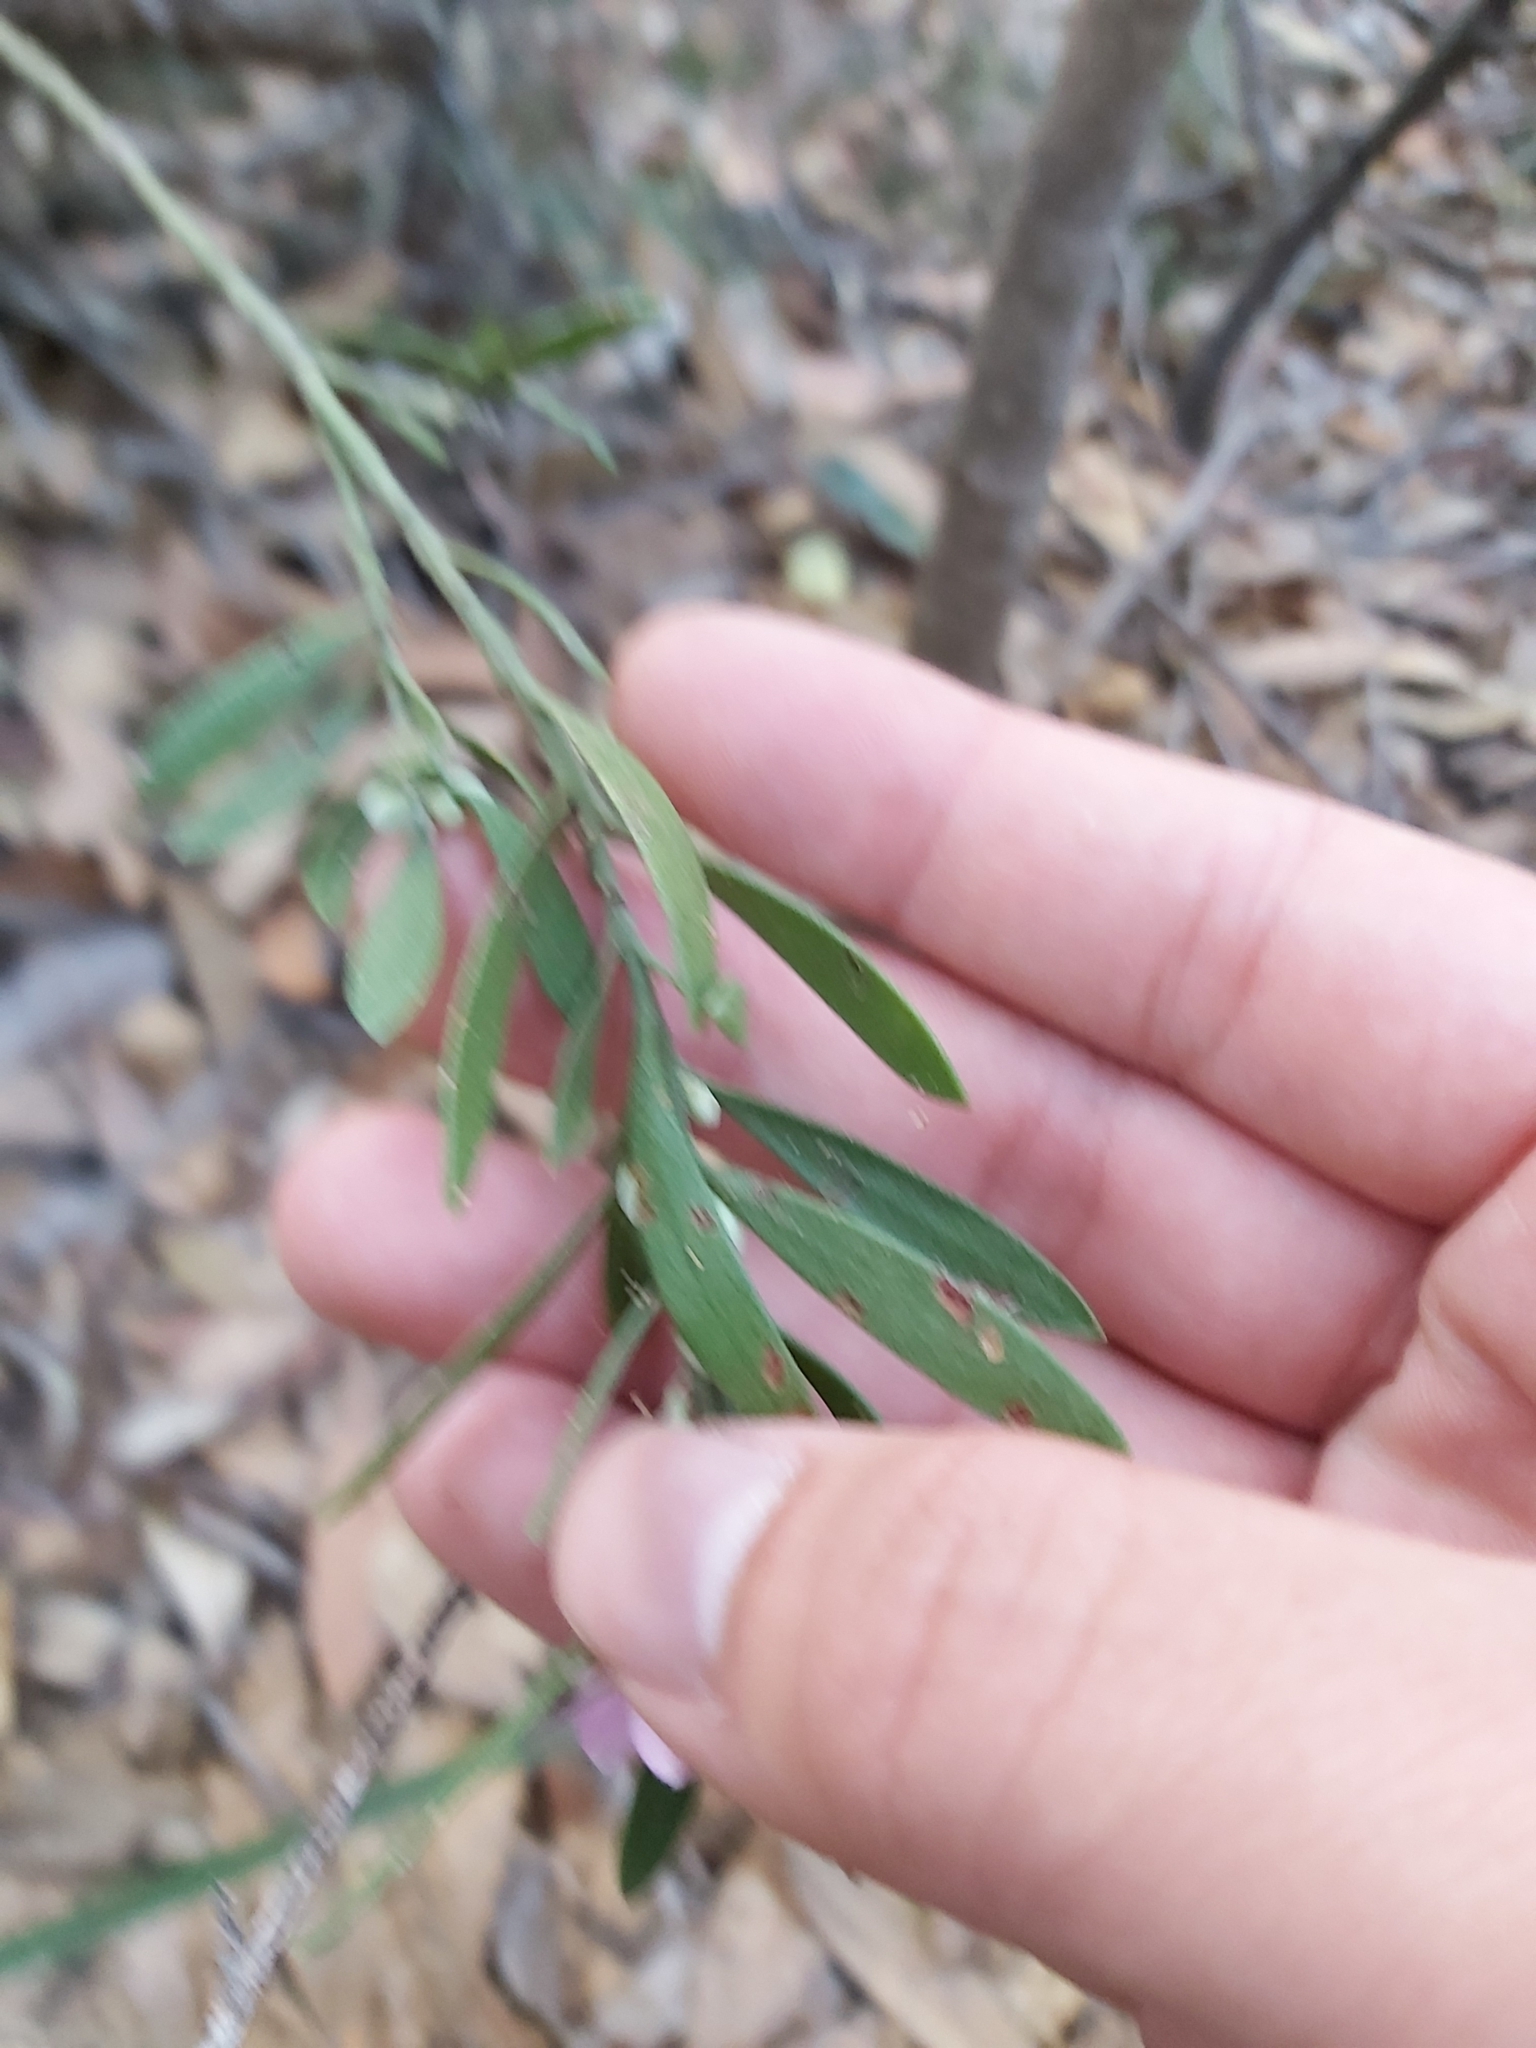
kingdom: Plantae
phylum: Tracheophyta
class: Magnoliopsida
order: Sapindales
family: Rutaceae
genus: Eriostemon
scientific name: Eriostemon australasius
